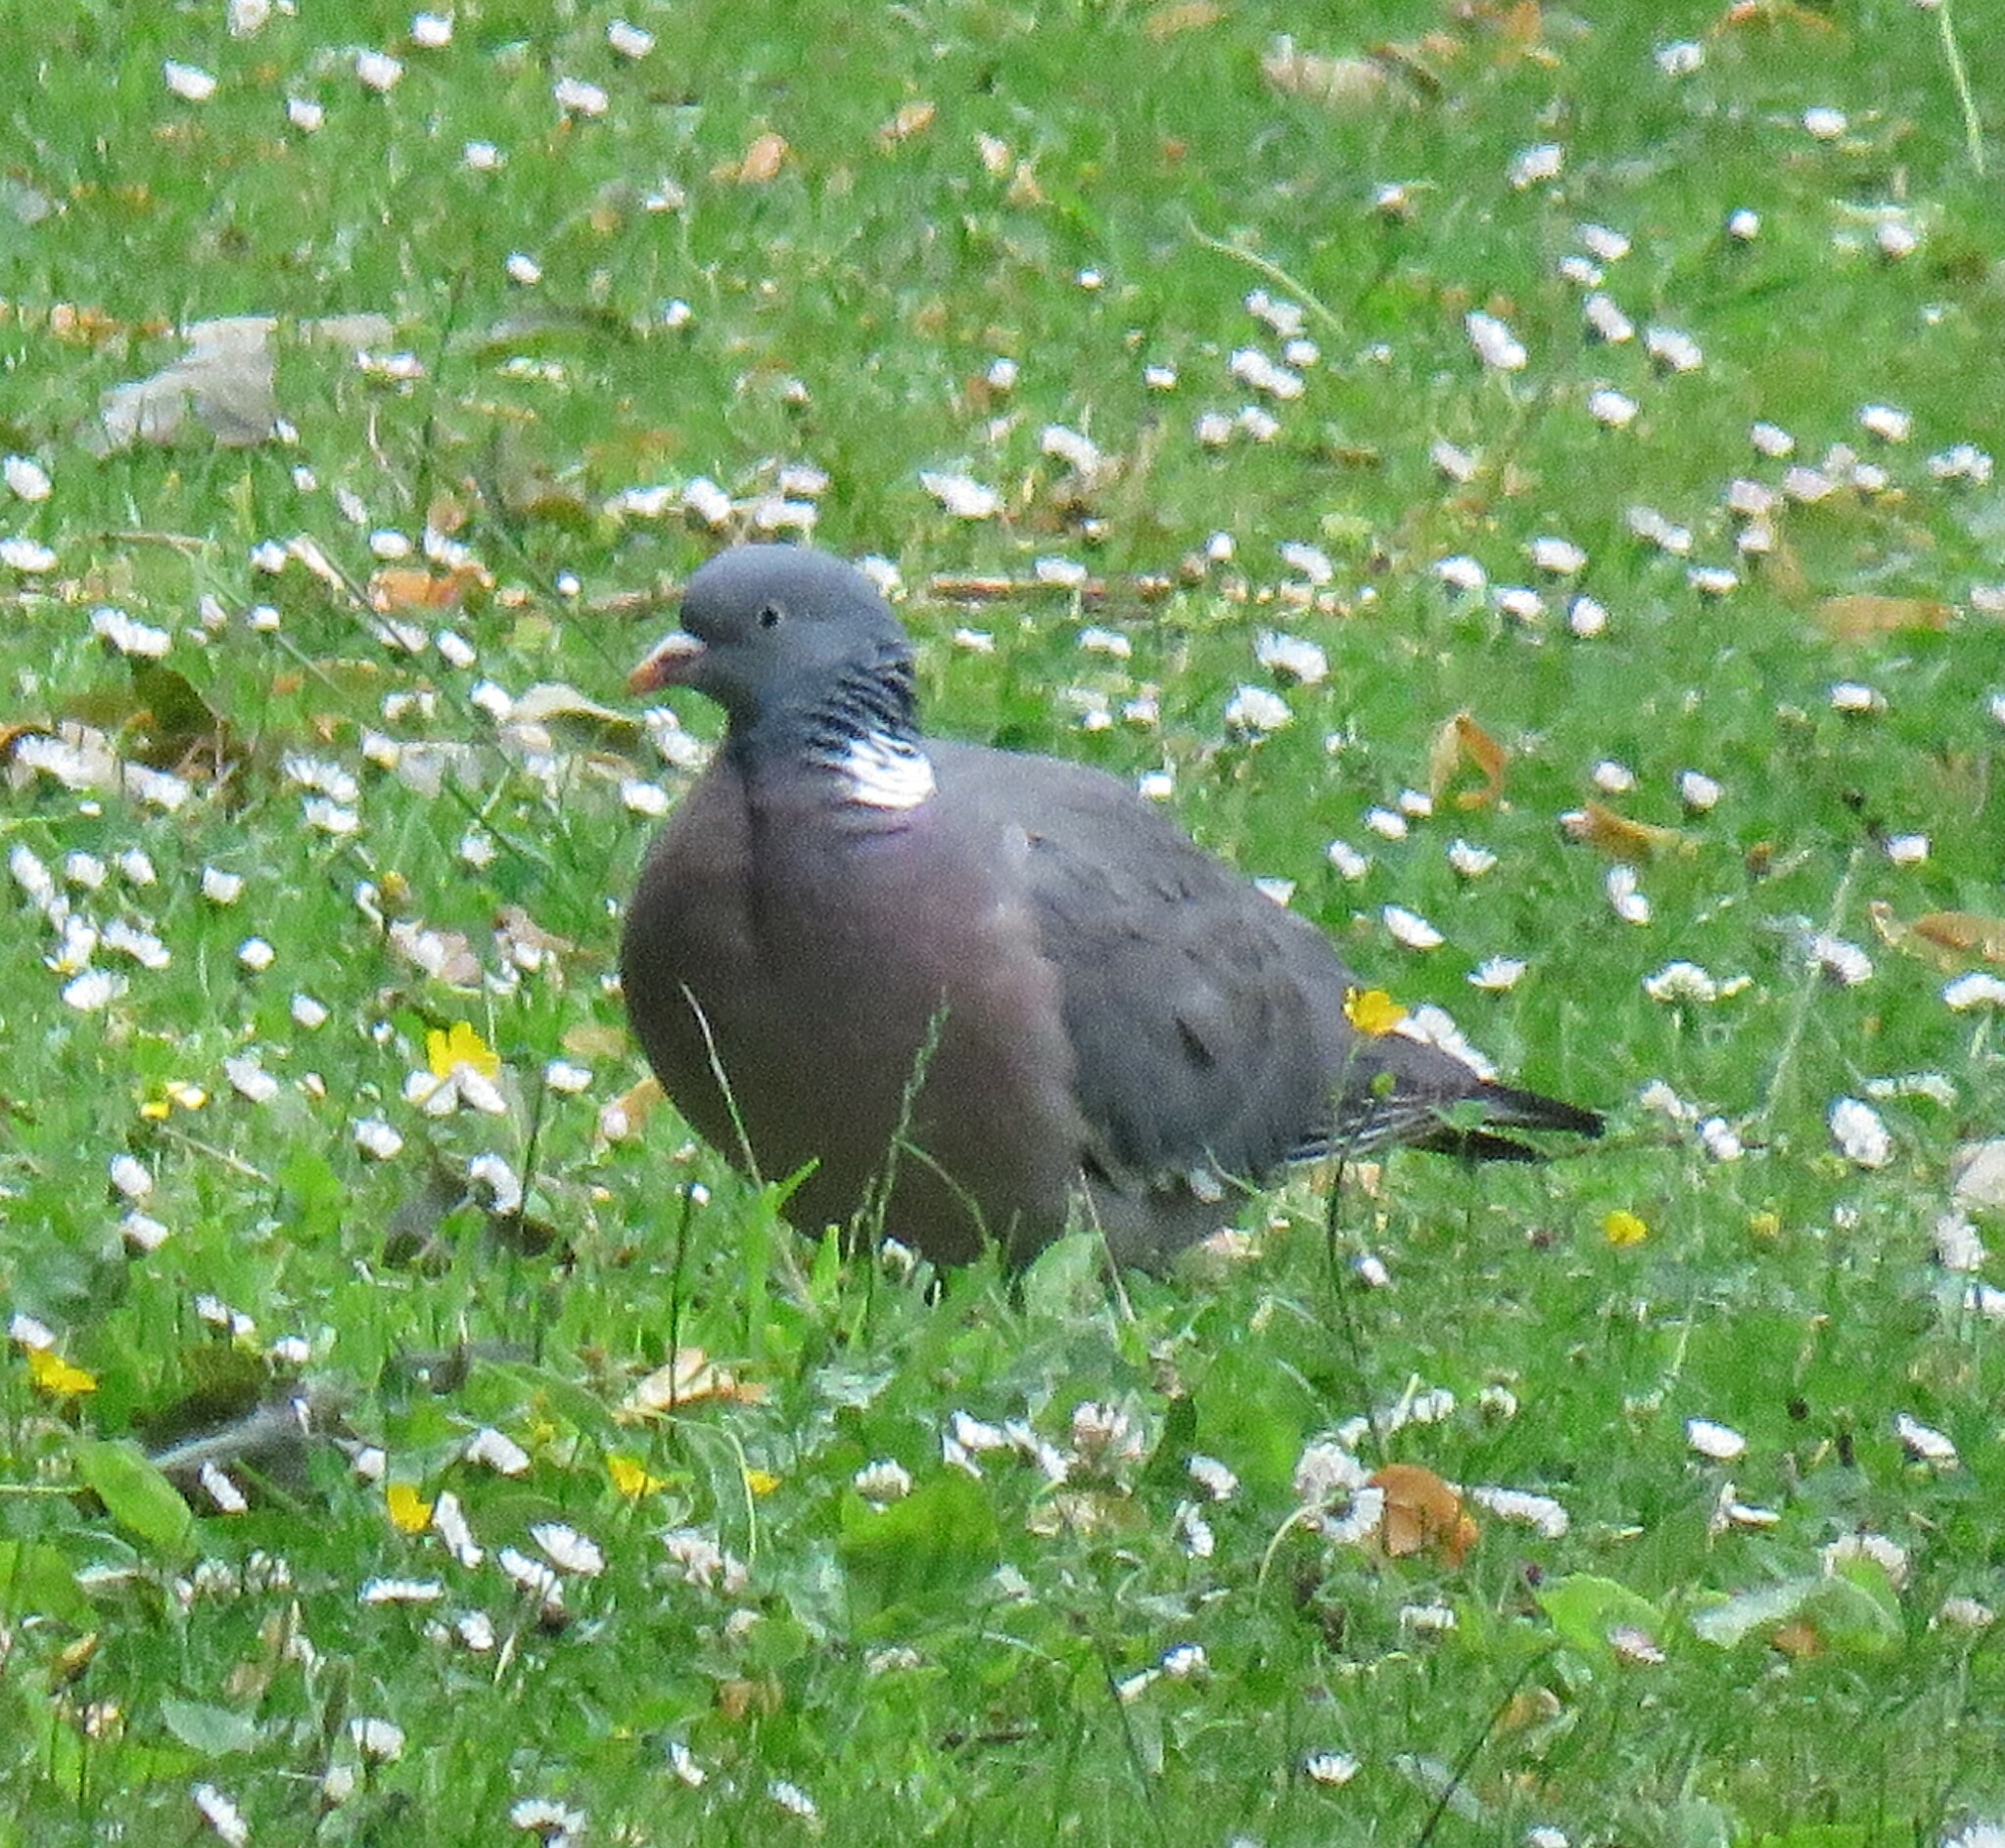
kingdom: Animalia
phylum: Chordata
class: Aves
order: Columbiformes
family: Columbidae
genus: Columba
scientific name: Columba palumbus
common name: Common wood pigeon
